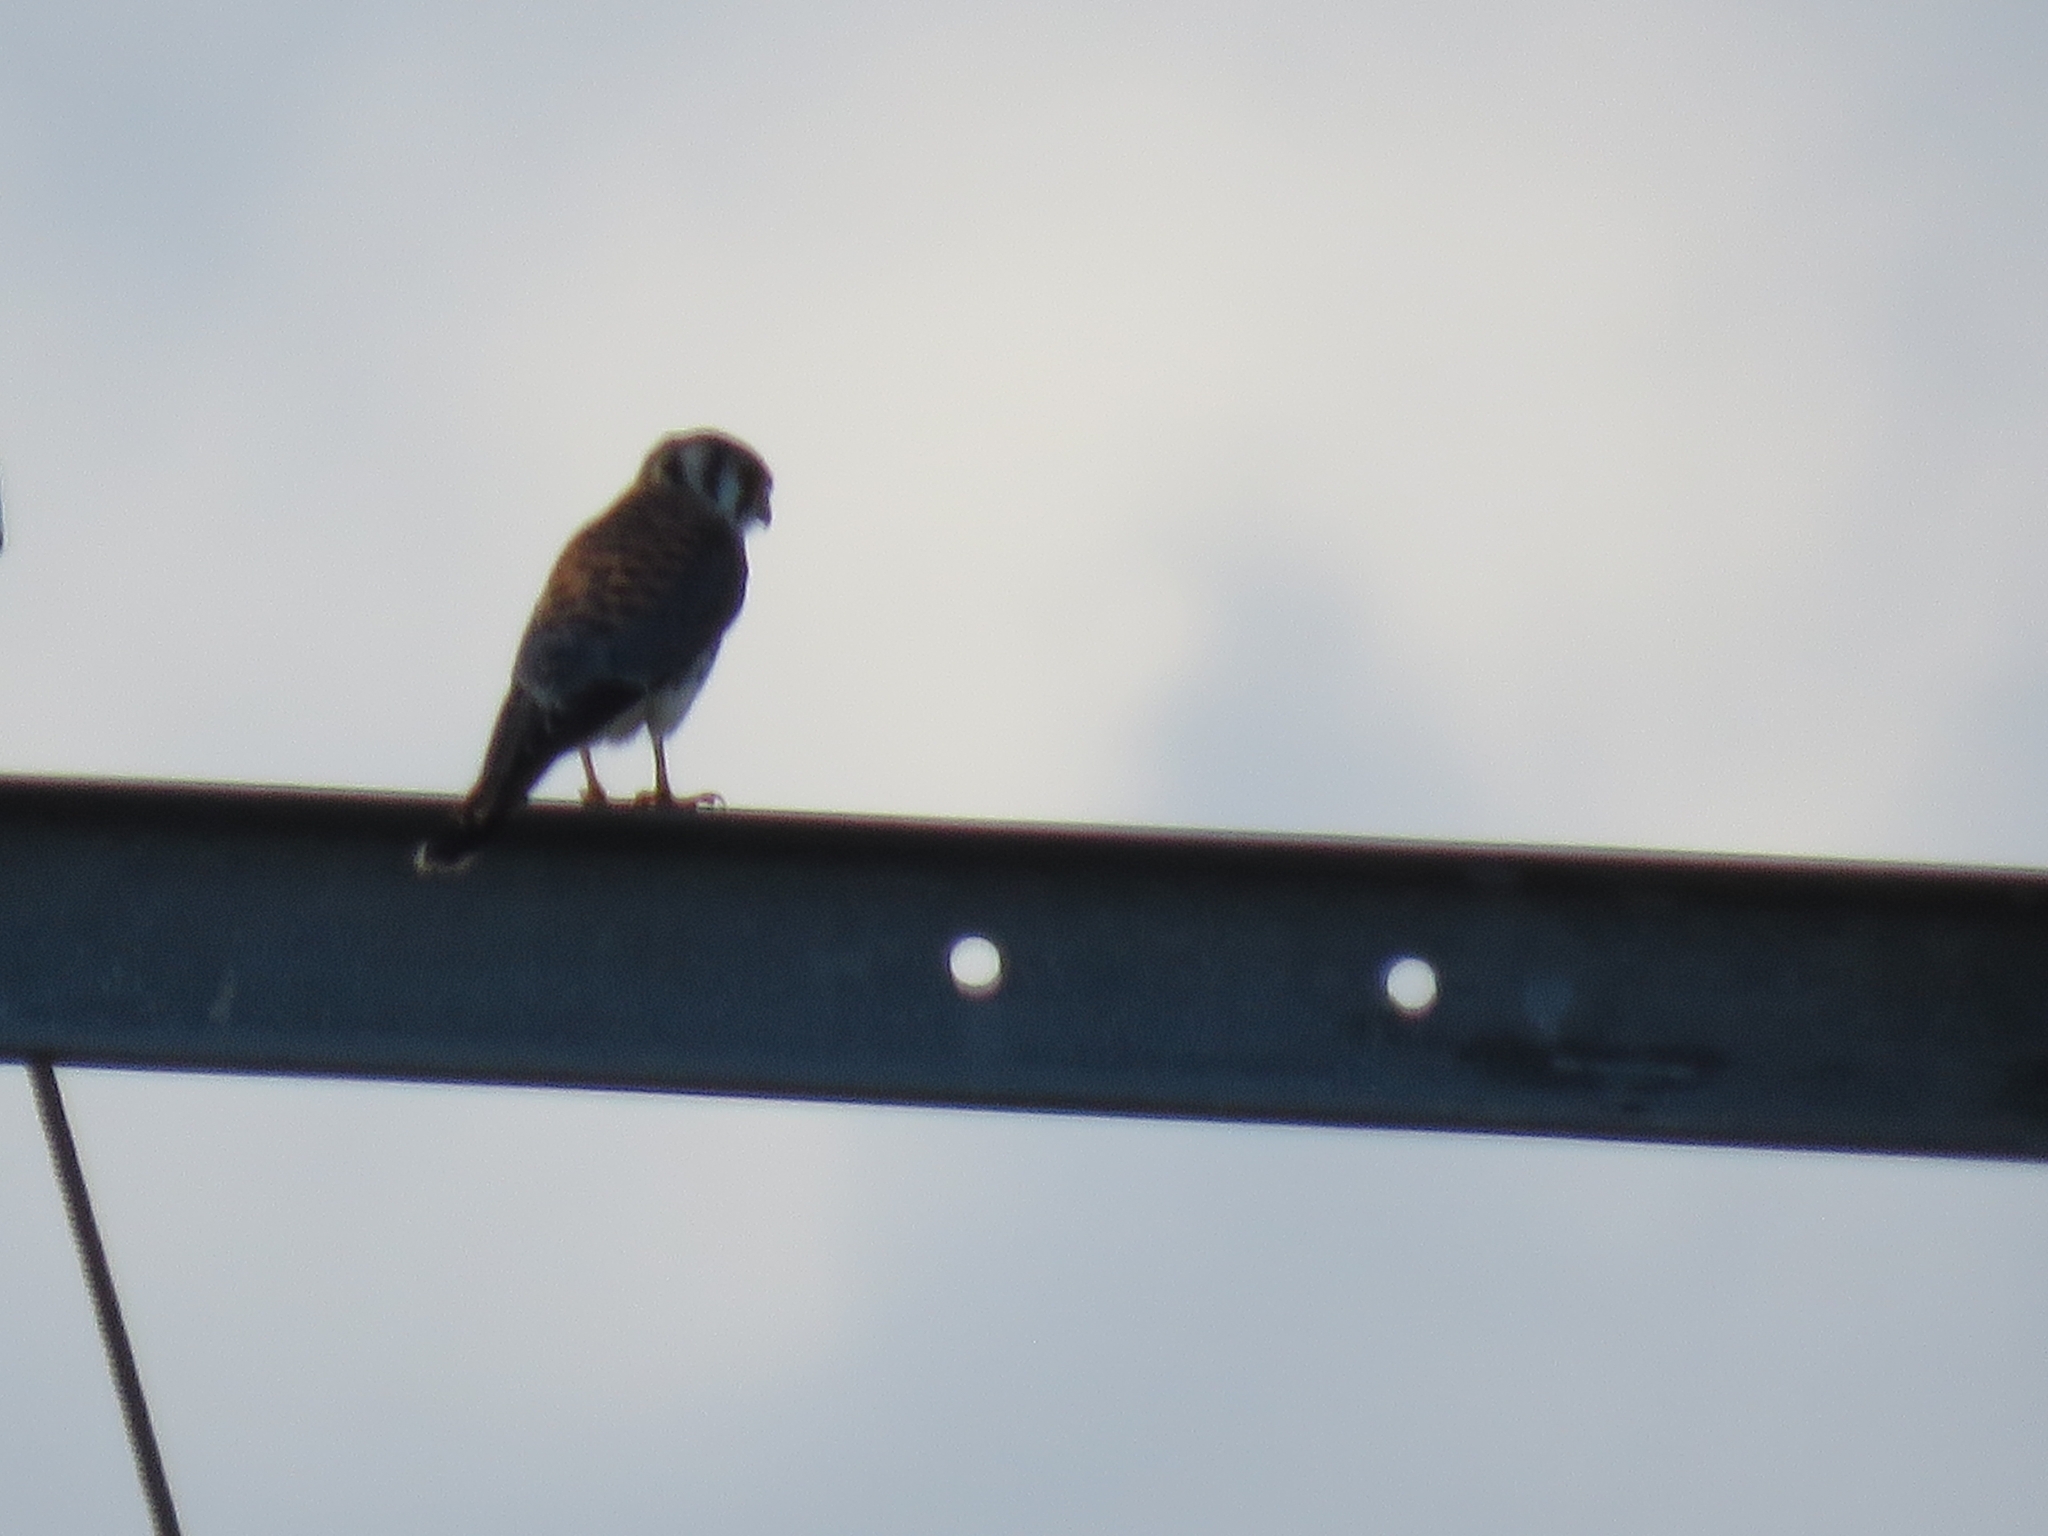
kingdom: Animalia
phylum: Chordata
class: Aves
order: Falconiformes
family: Falconidae
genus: Falco
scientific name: Falco sparverius
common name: American kestrel
